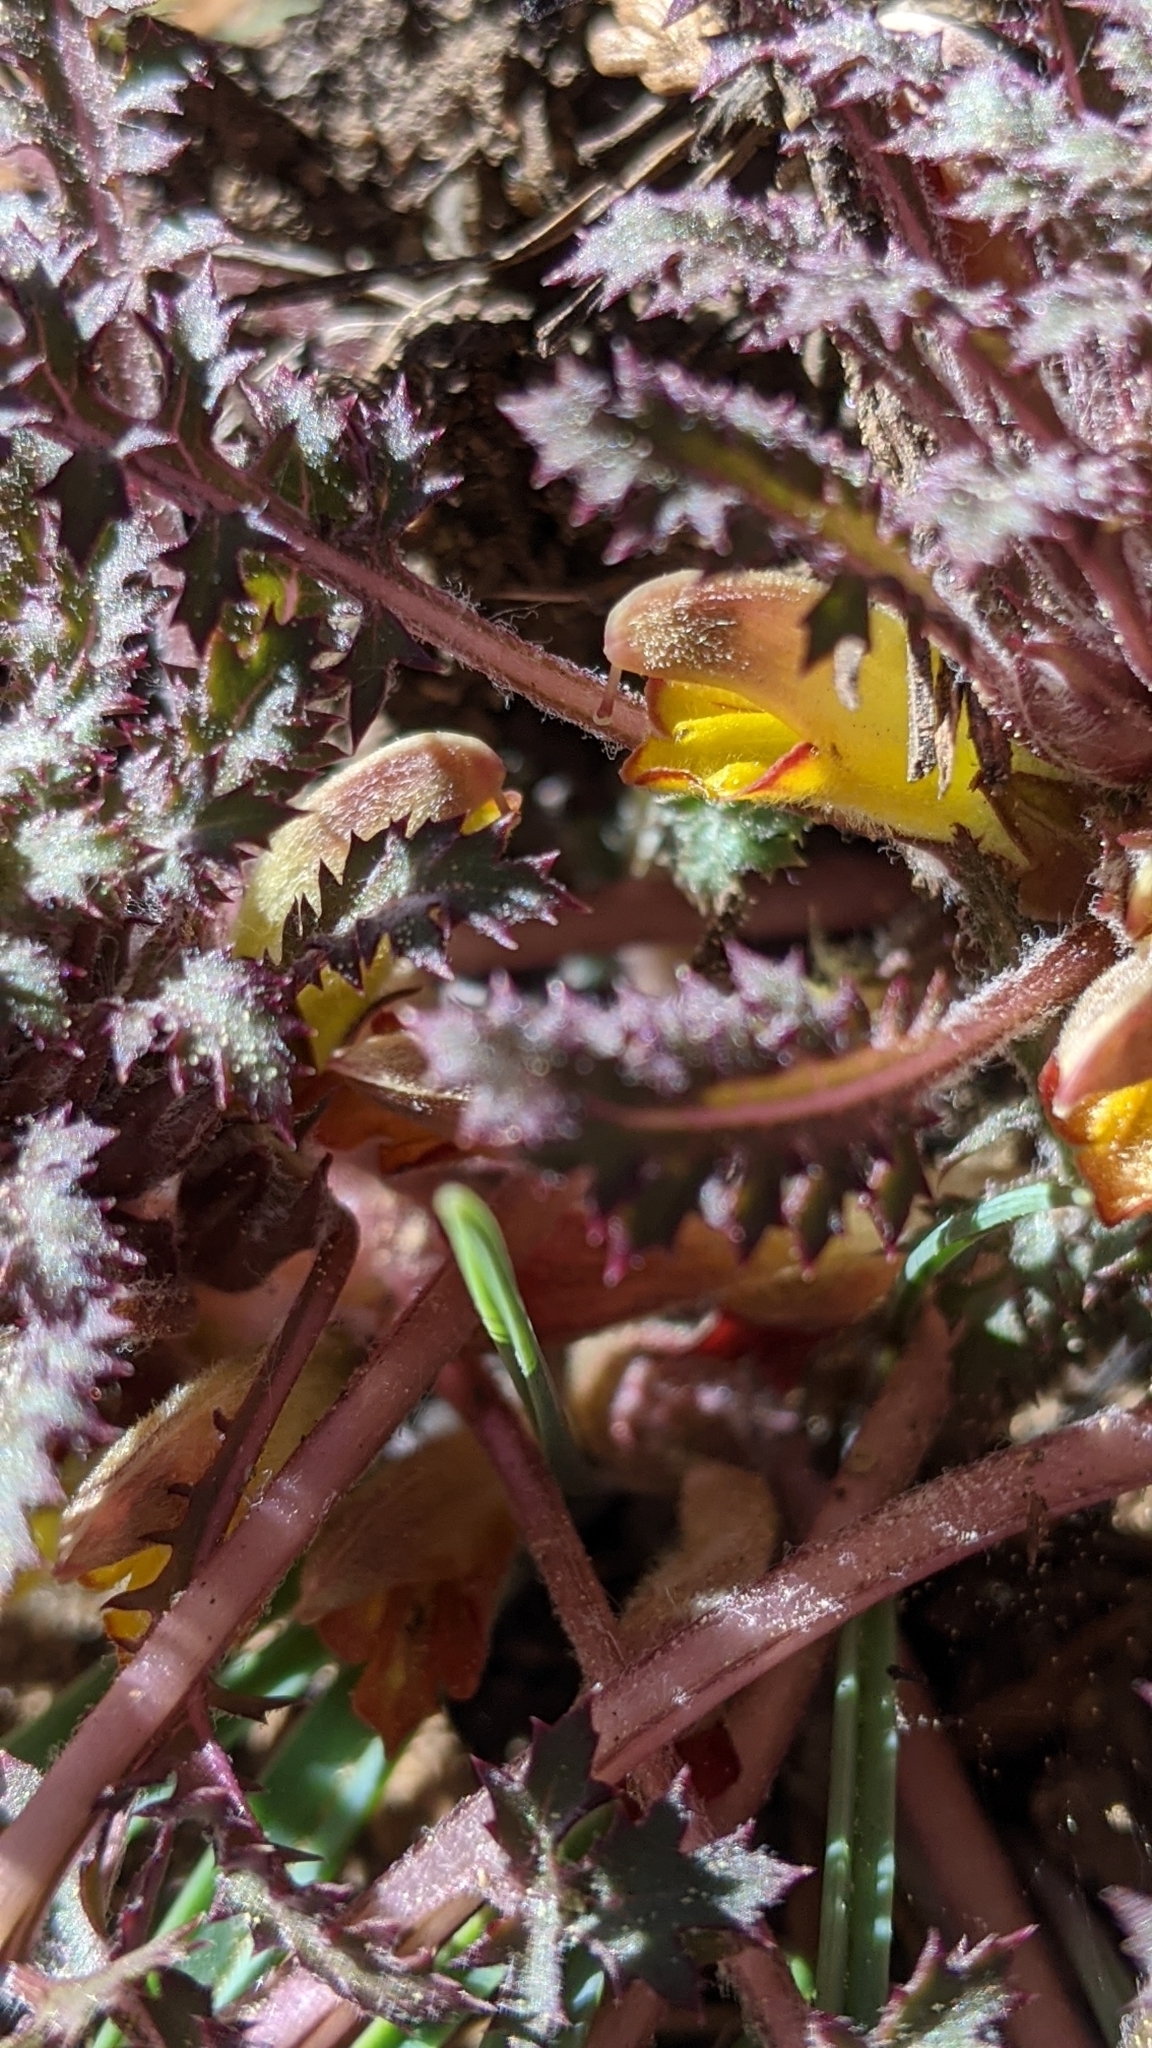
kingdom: Plantae
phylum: Tracheophyta
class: Magnoliopsida
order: Lamiales
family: Orobanchaceae
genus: Pedicularis
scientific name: Pedicularis semibarbata
